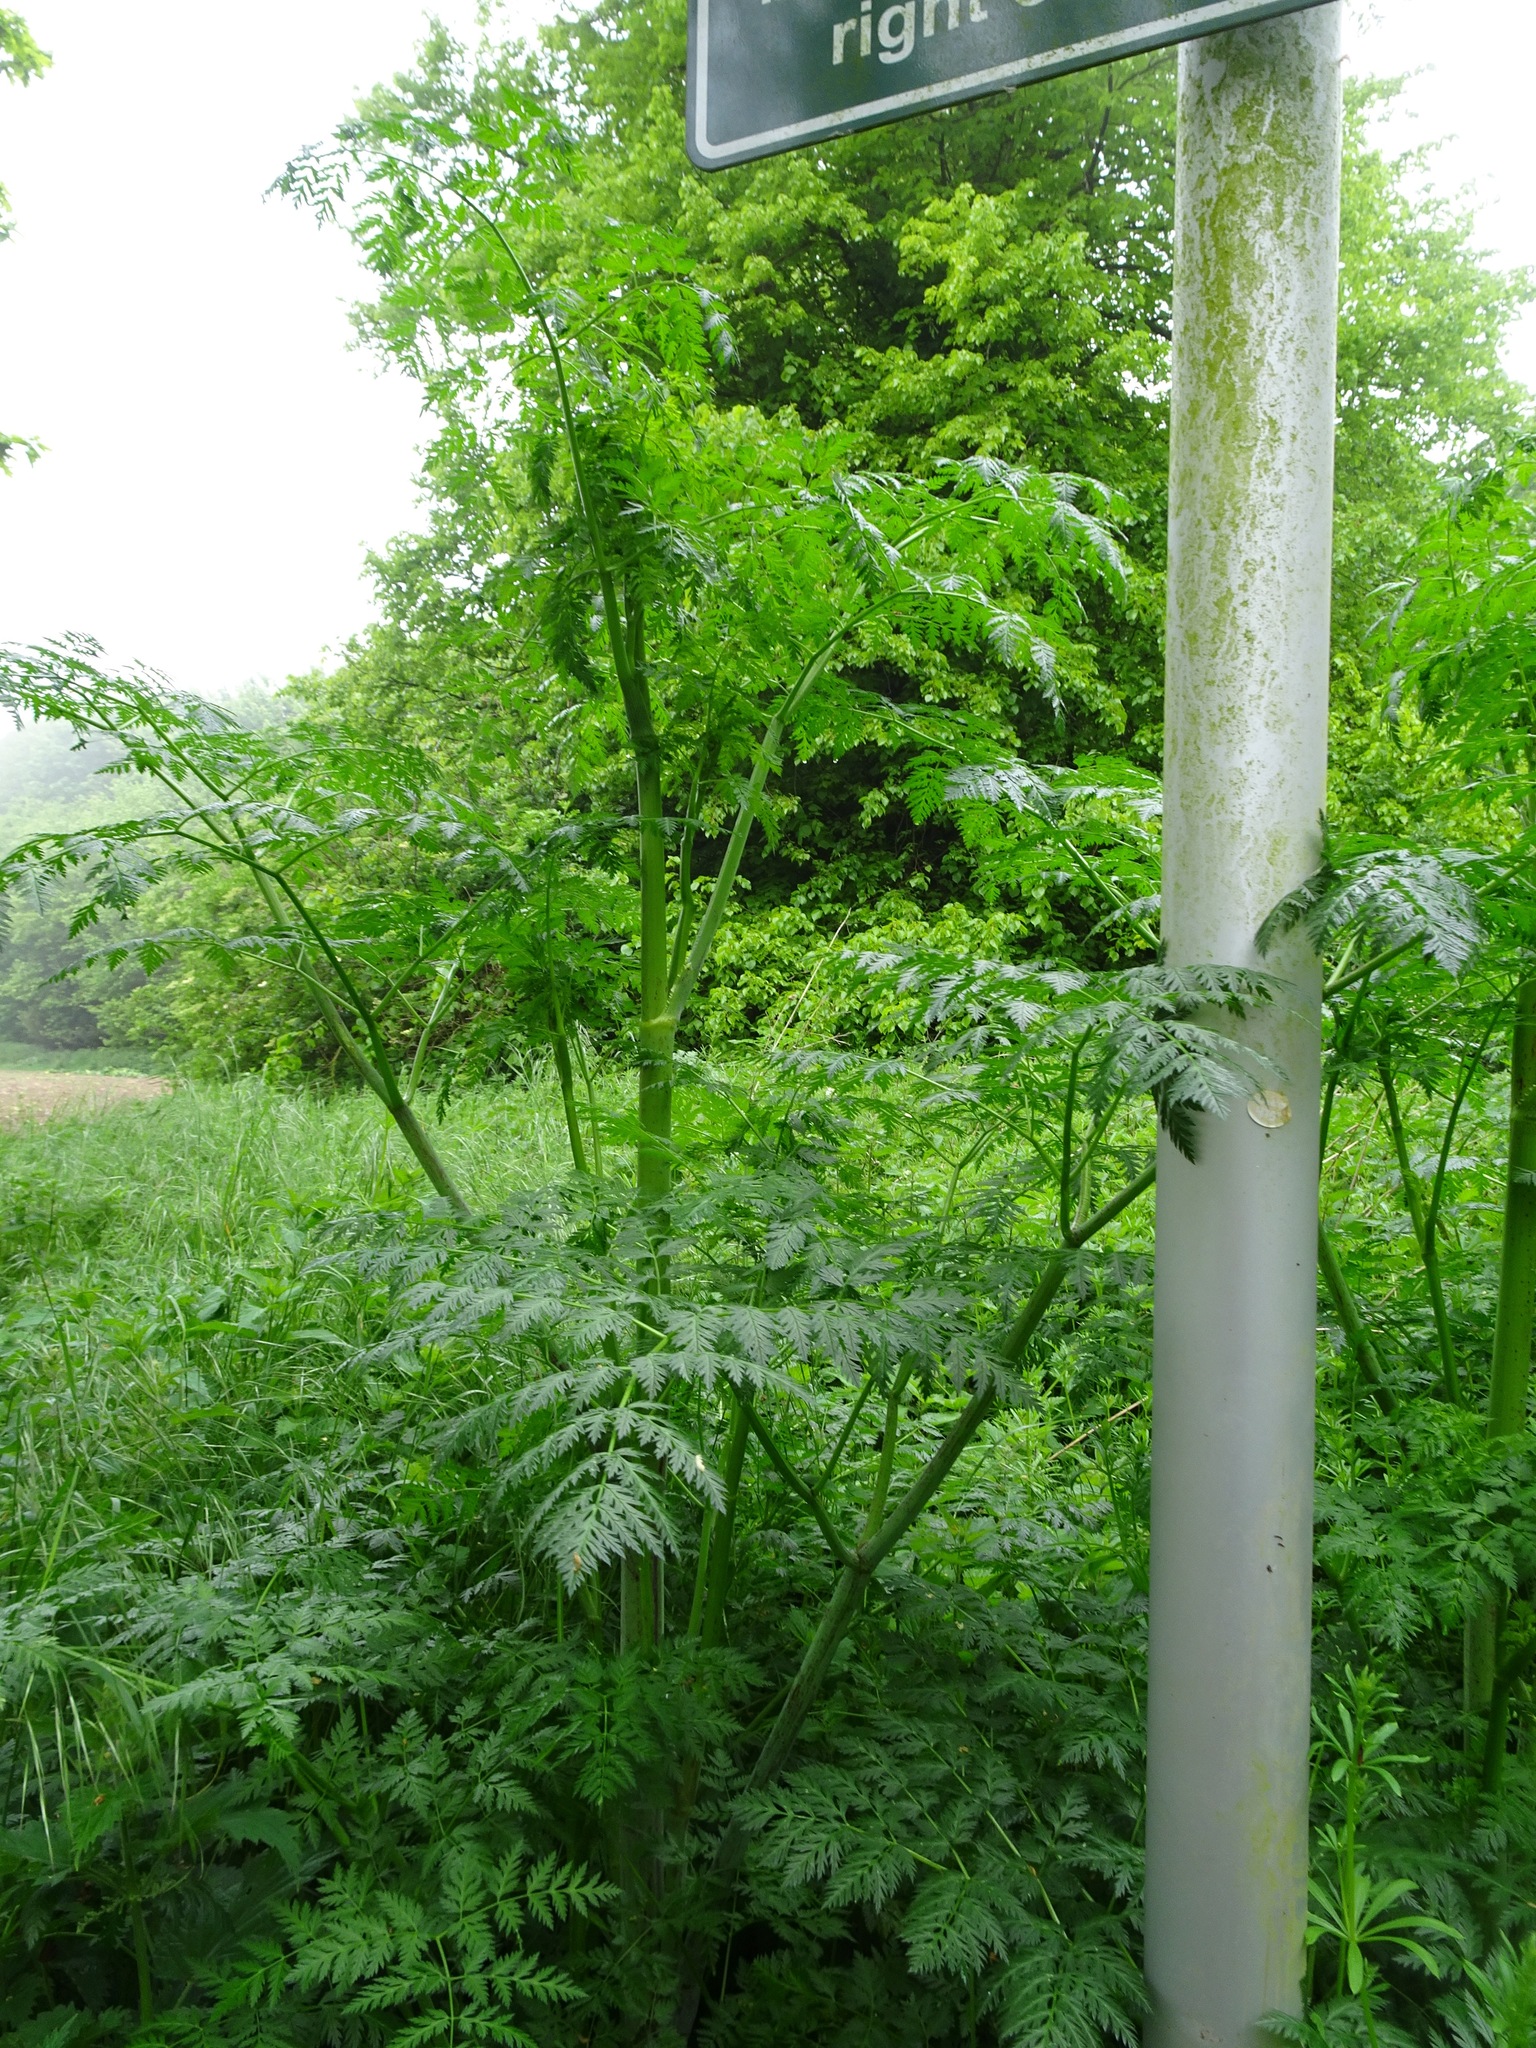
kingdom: Plantae
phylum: Tracheophyta
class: Magnoliopsida
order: Apiales
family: Apiaceae
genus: Conium
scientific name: Conium maculatum
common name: Hemlock
